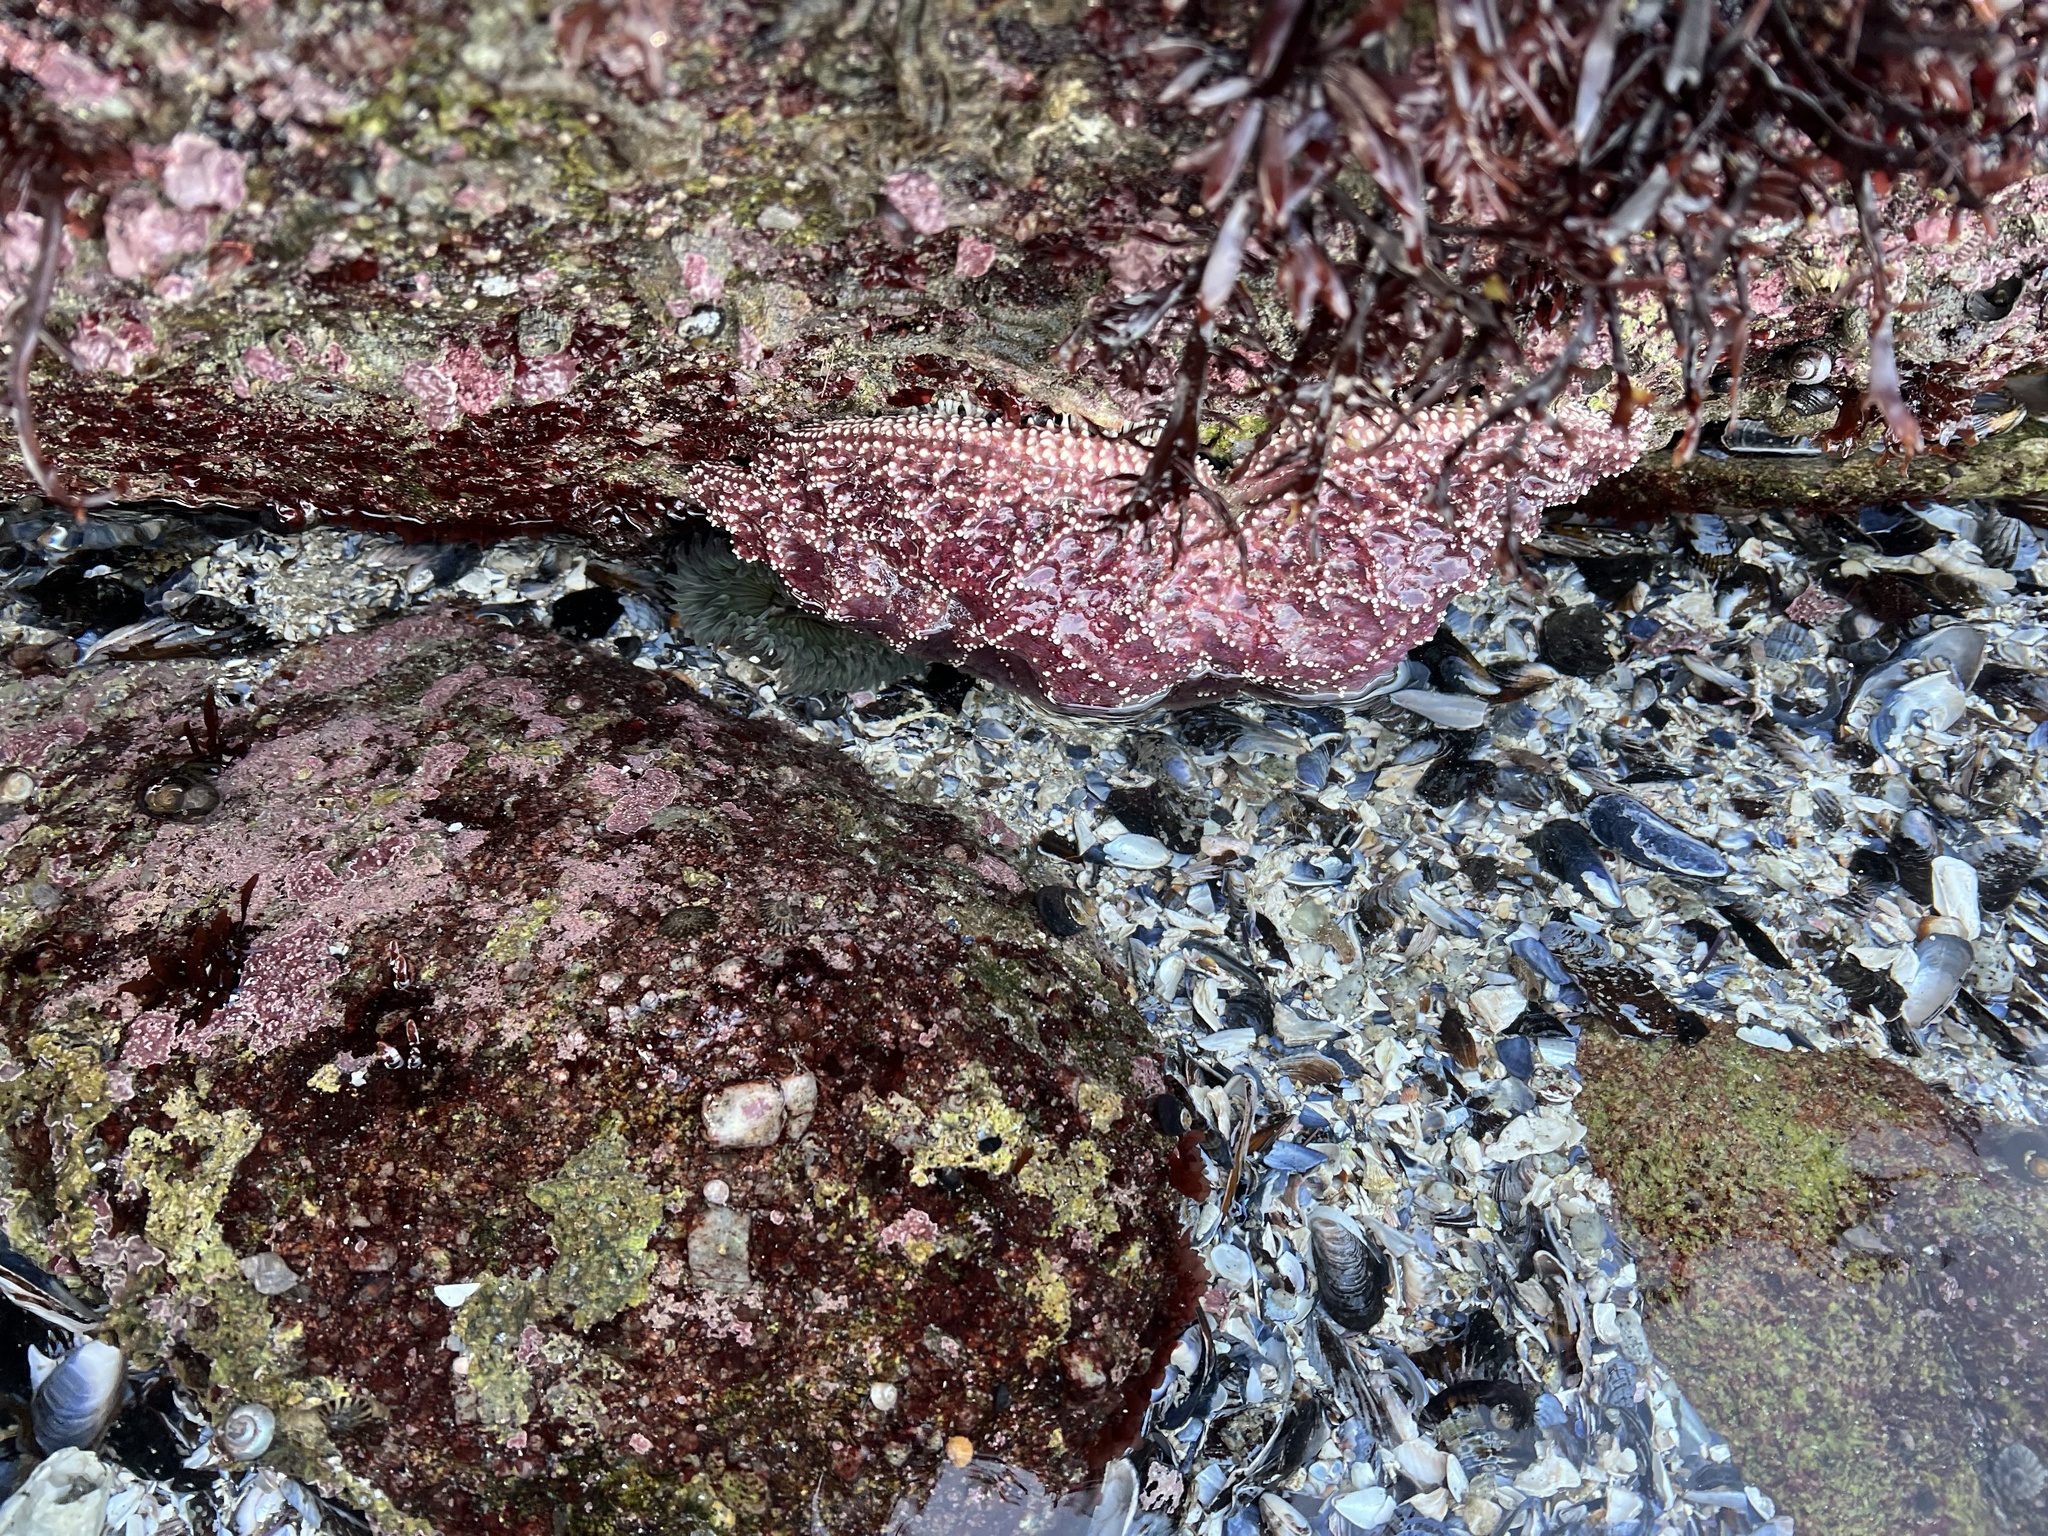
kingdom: Animalia
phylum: Echinodermata
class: Asteroidea
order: Forcipulatida
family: Asteriidae
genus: Pisaster
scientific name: Pisaster ochraceus
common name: Ochre stars
